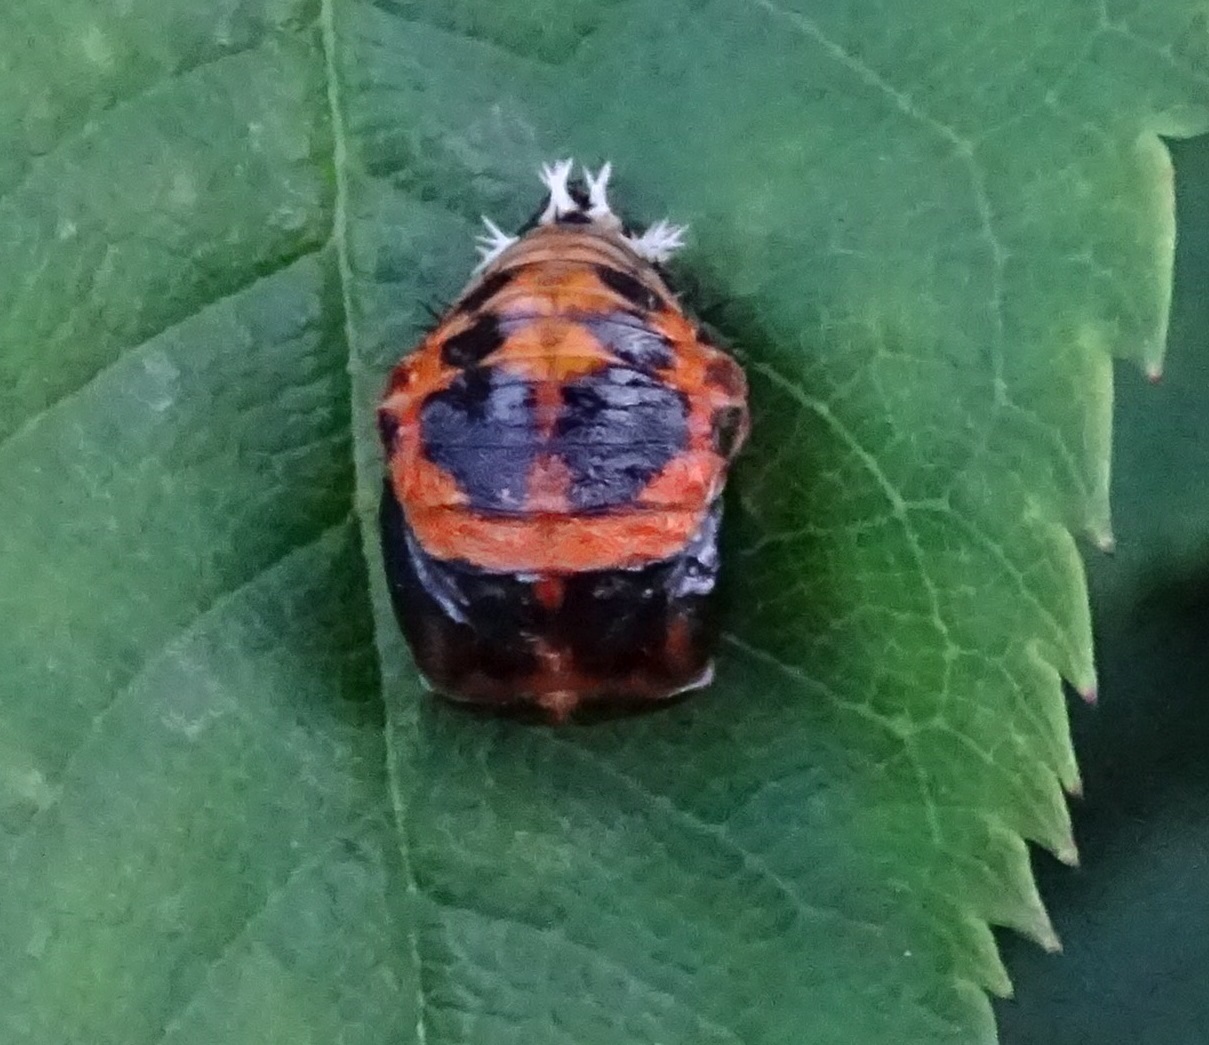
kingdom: Animalia
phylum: Arthropoda
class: Insecta
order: Coleoptera
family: Coccinellidae
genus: Harmonia
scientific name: Harmonia axyridis
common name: Harlequin ladybird
